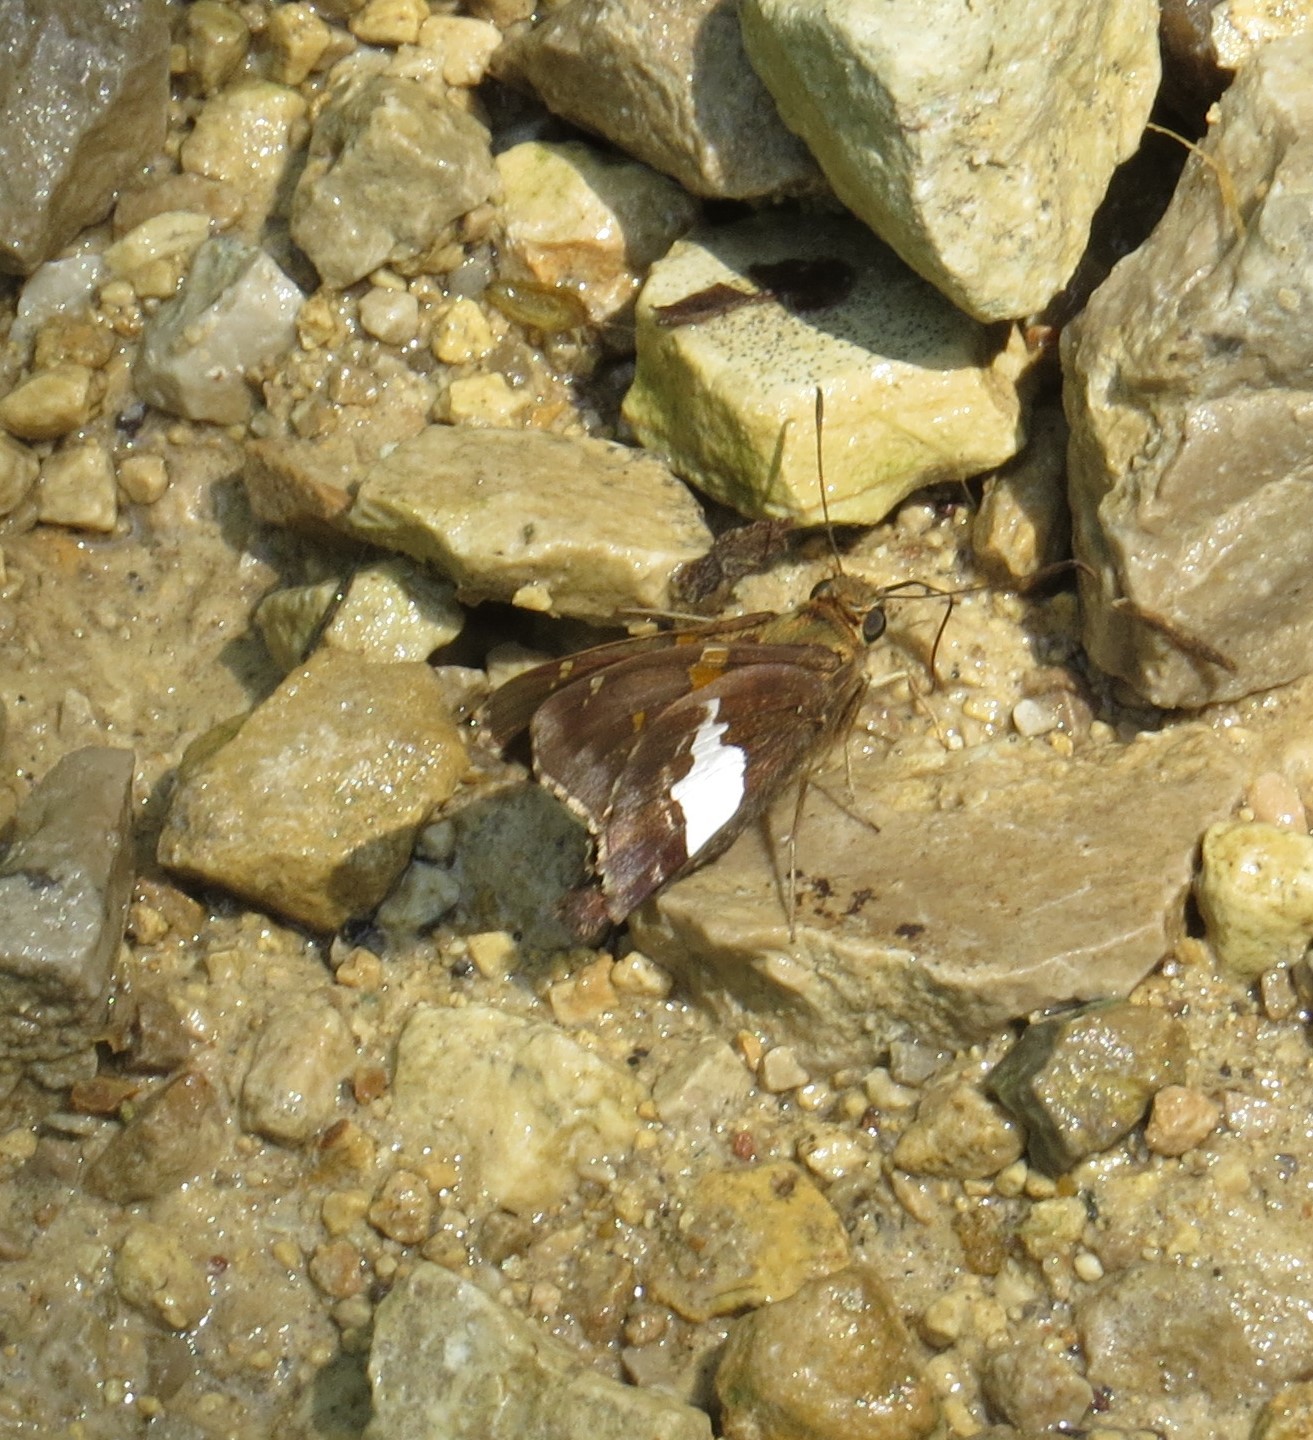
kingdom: Animalia
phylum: Arthropoda
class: Insecta
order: Lepidoptera
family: Hesperiidae
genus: Epargyreus
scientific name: Epargyreus clarus
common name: Silver-spotted skipper
